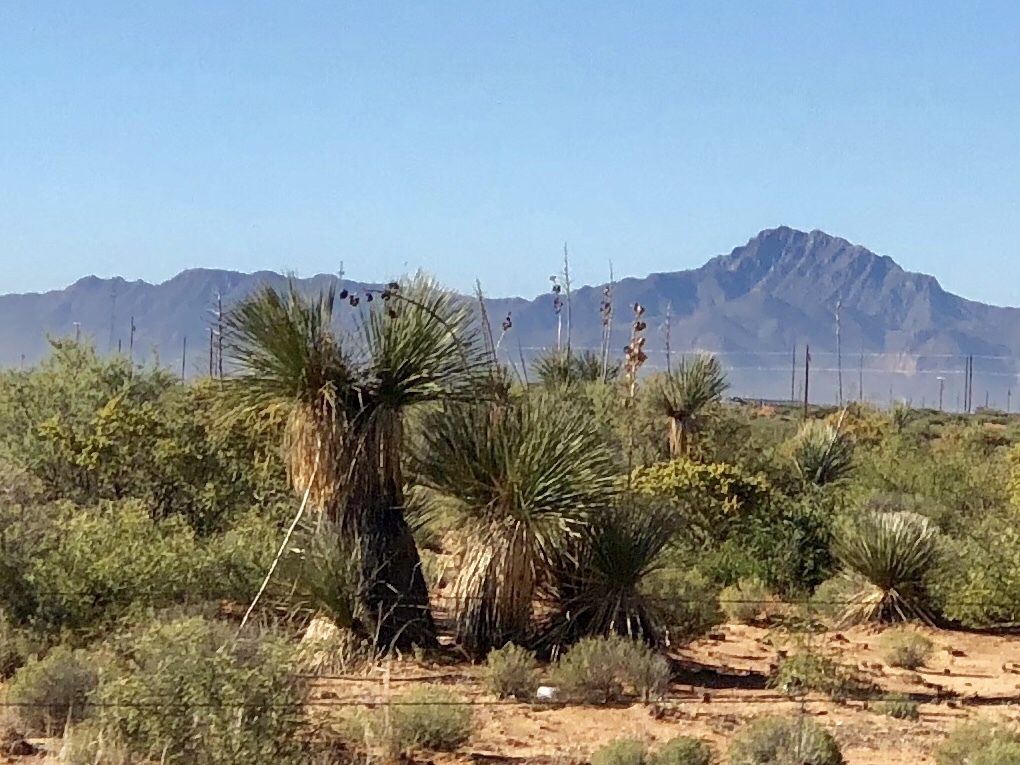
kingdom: Plantae
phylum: Tracheophyta
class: Liliopsida
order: Asparagales
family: Asparagaceae
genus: Yucca
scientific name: Yucca elata
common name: Palmella
